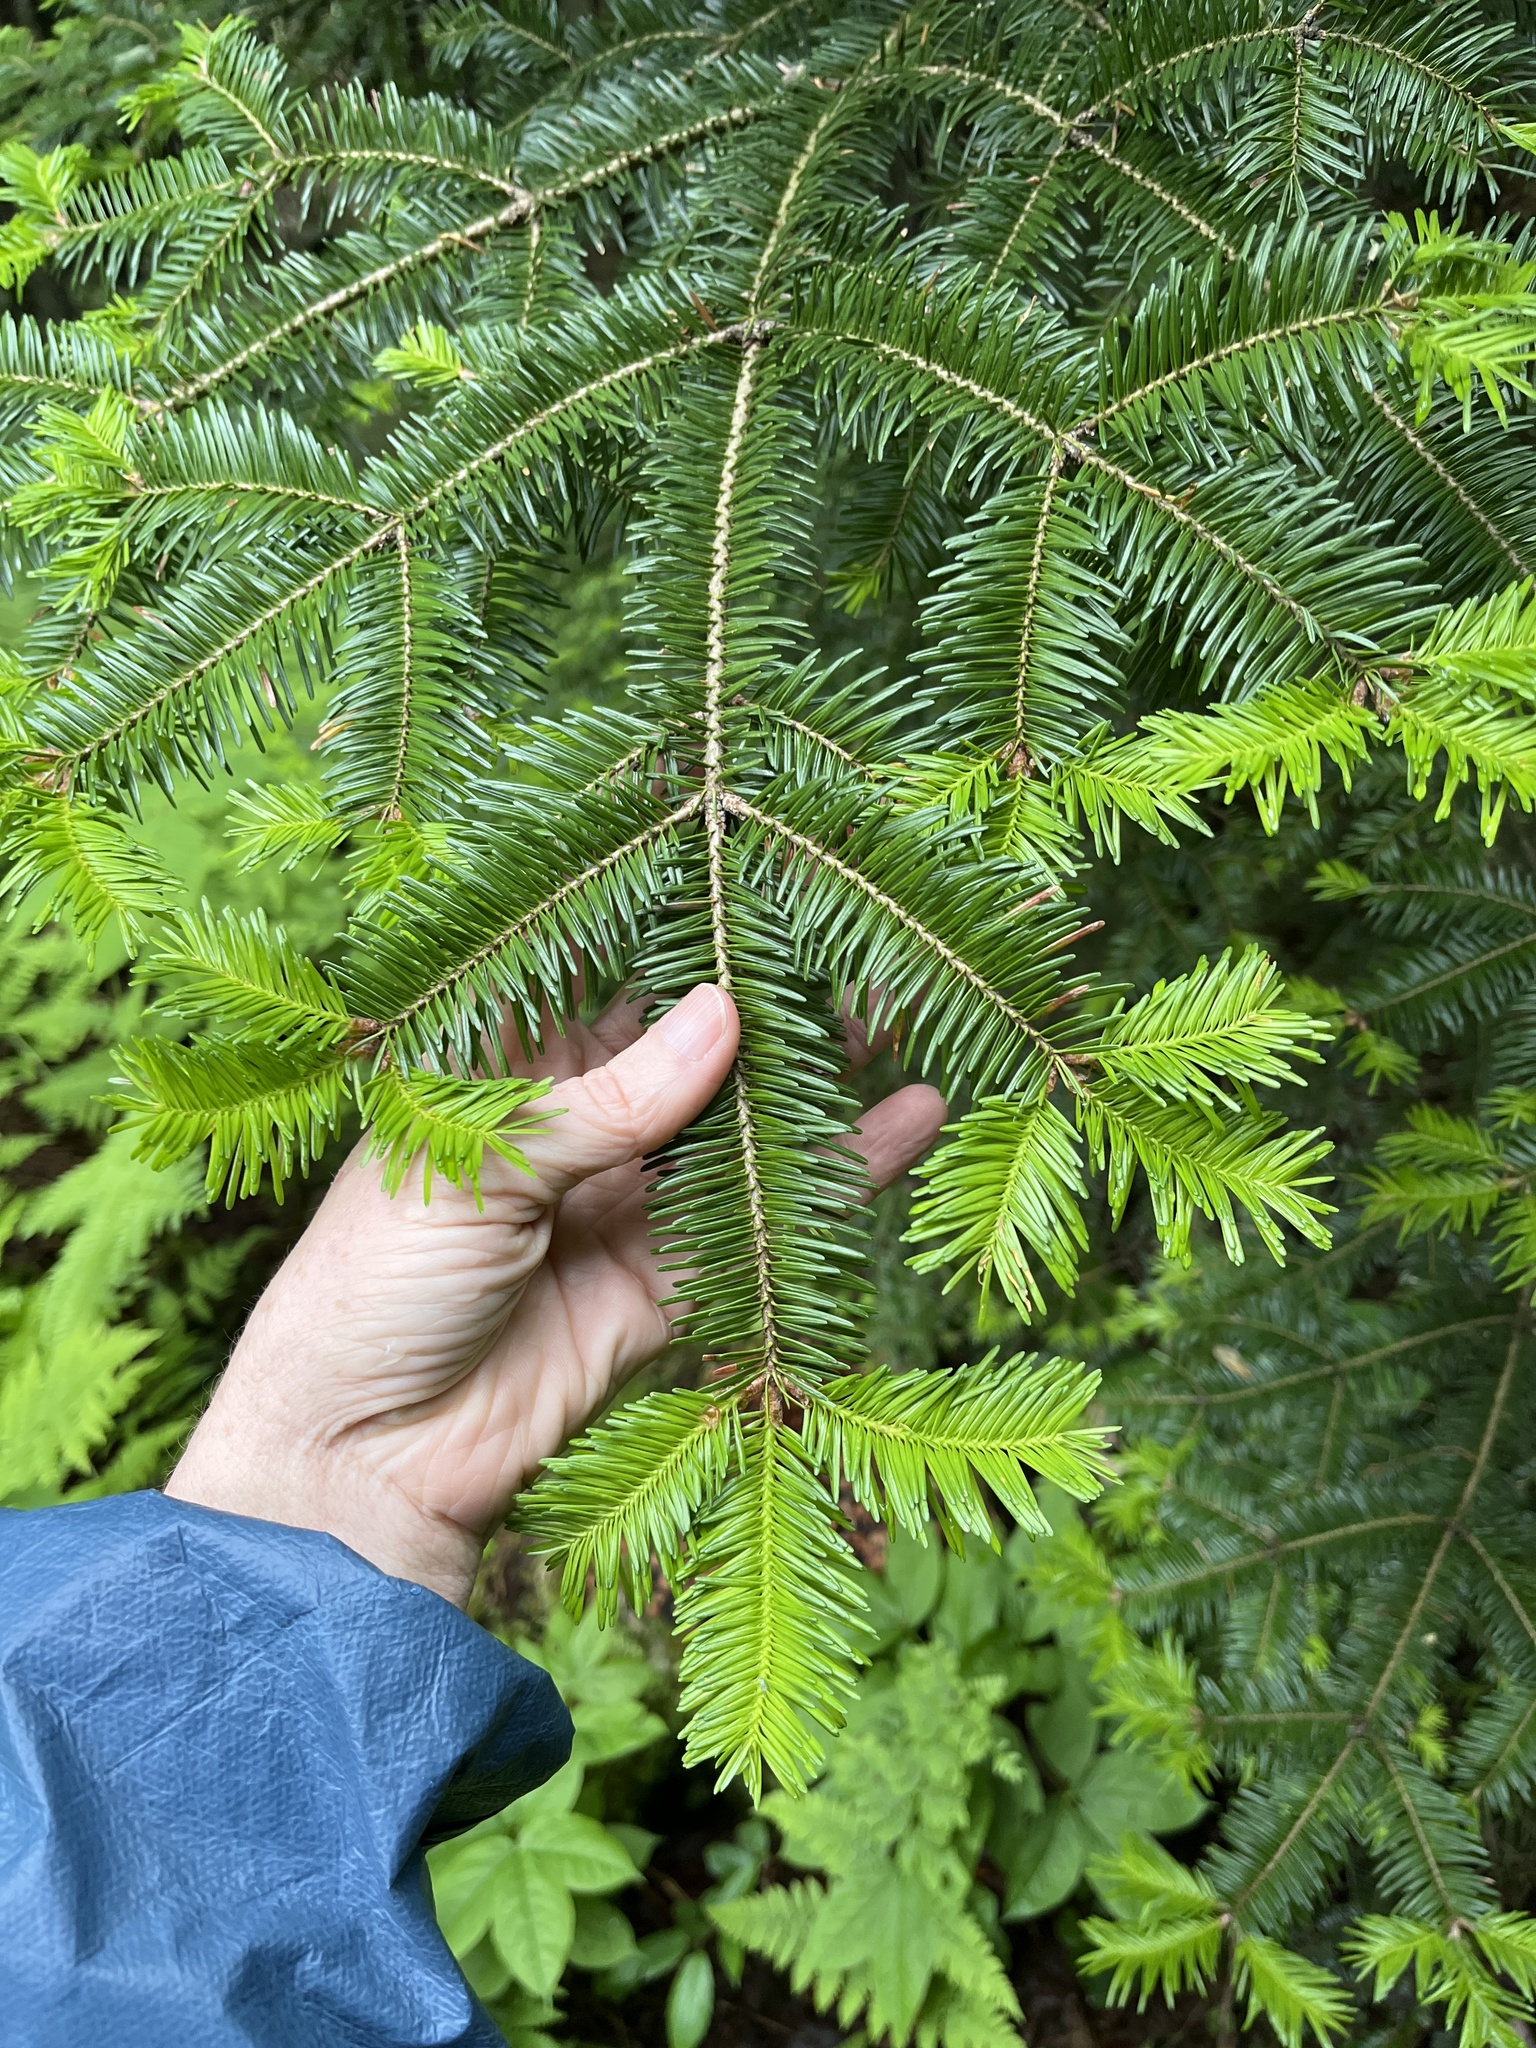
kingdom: Plantae
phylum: Tracheophyta
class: Pinopsida
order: Pinales
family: Pinaceae
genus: Abies
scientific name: Abies balsamea
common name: Balsam fir
